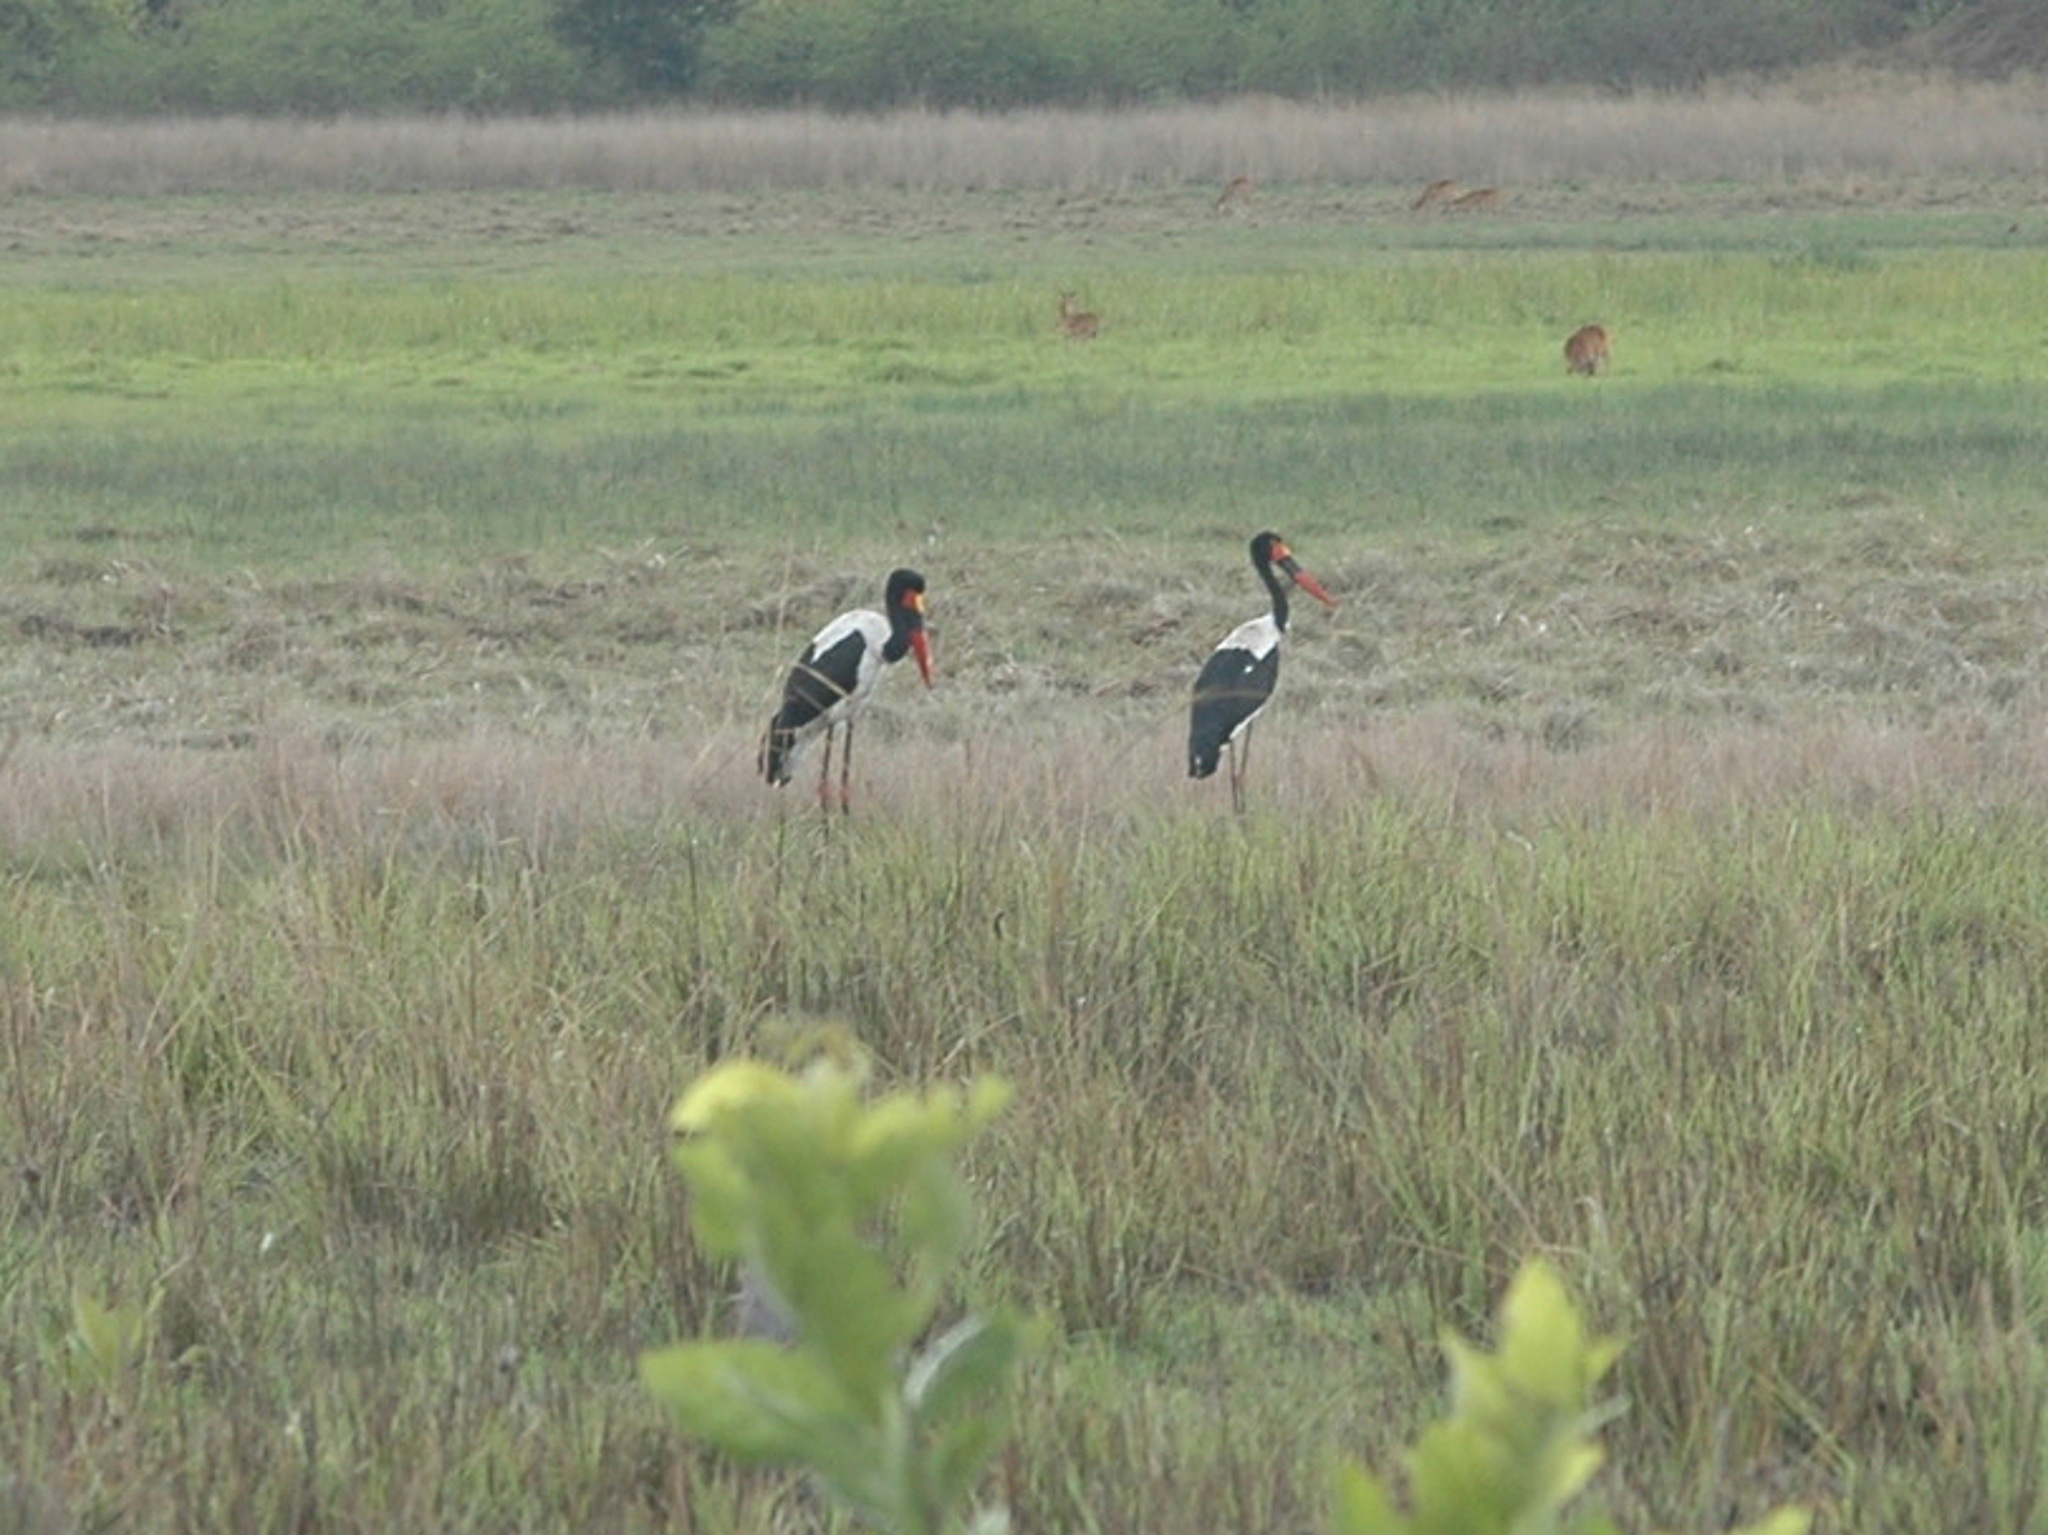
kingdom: Animalia
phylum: Chordata
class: Aves
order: Ciconiiformes
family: Ciconiidae
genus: Ephippiorhynchus
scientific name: Ephippiorhynchus senegalensis
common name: Saddle-billed stork
